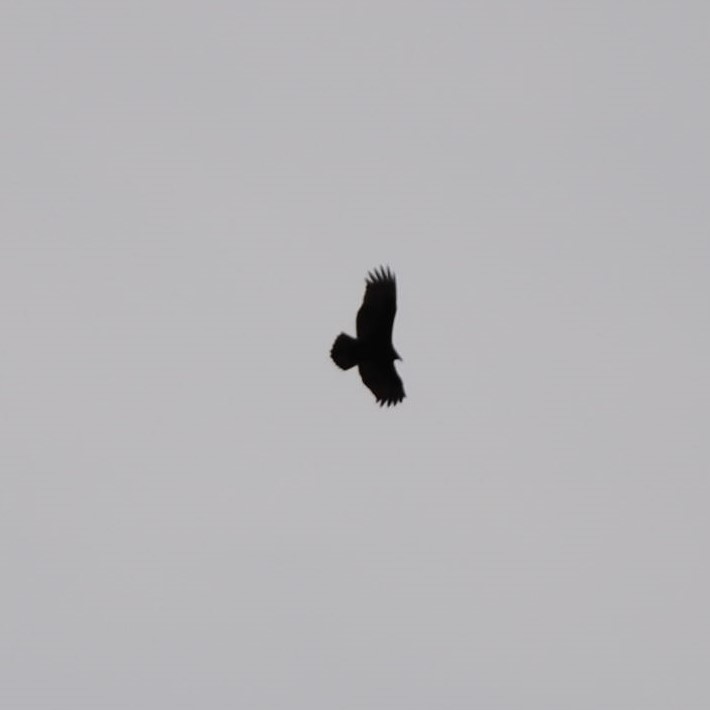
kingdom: Animalia
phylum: Chordata
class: Aves
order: Accipitriformes
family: Accipitridae
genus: Haliaeetus
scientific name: Haliaeetus leucocephalus
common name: Bald eagle
